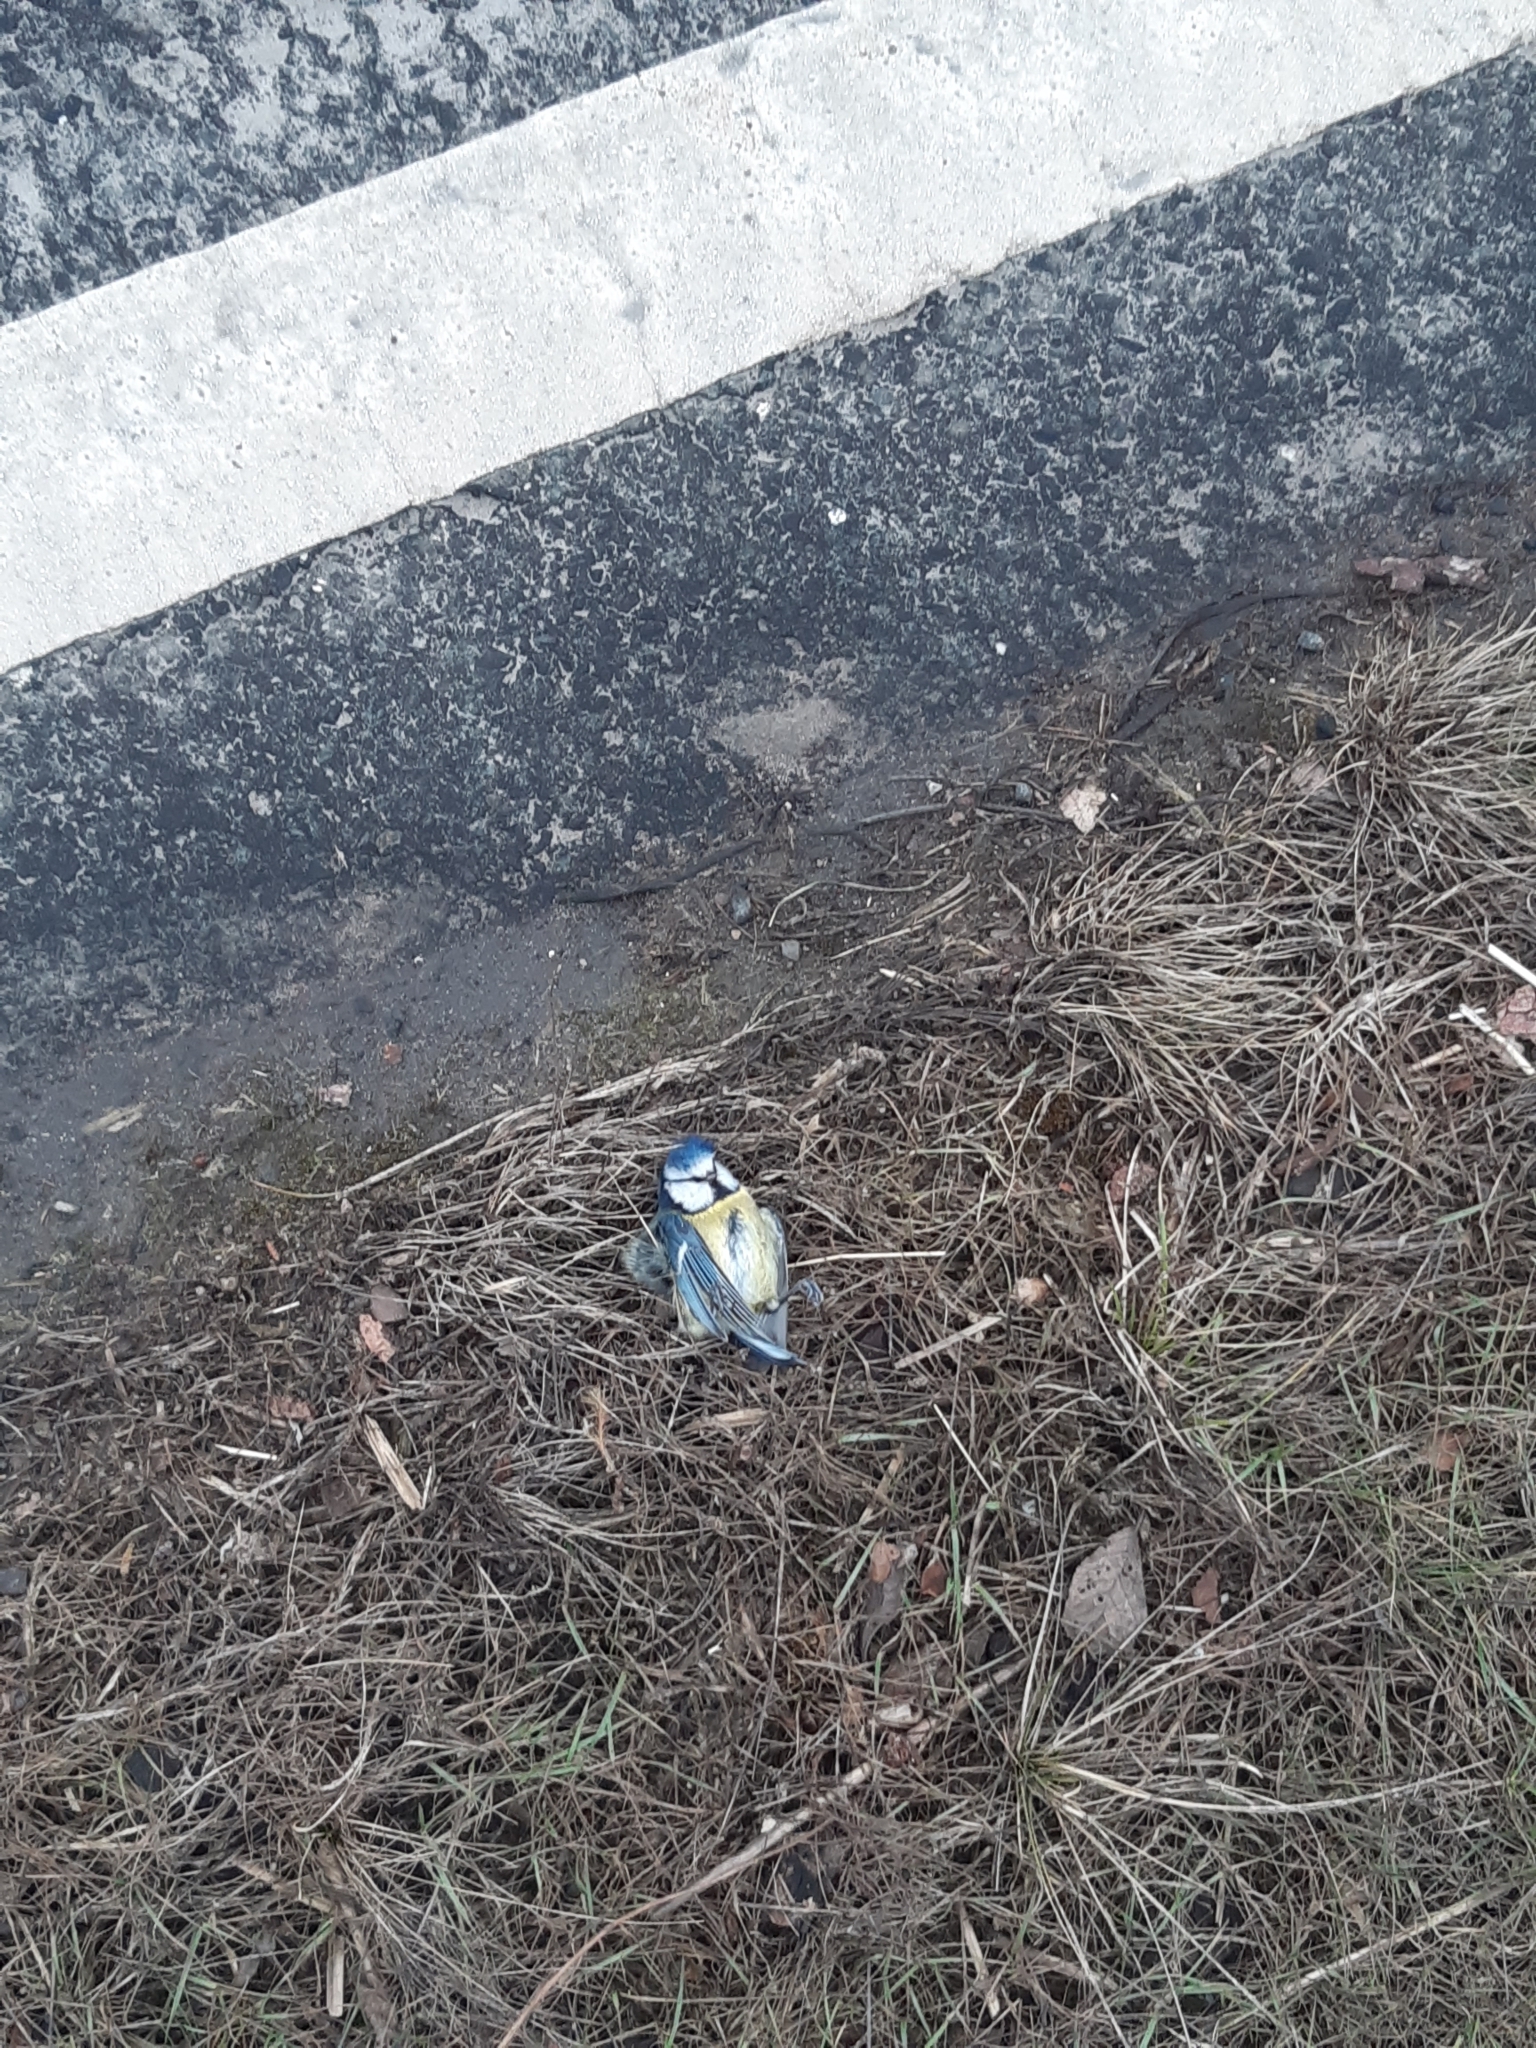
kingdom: Animalia
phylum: Chordata
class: Aves
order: Passeriformes
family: Paridae
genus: Cyanistes
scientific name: Cyanistes caeruleus
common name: Eurasian blue tit
